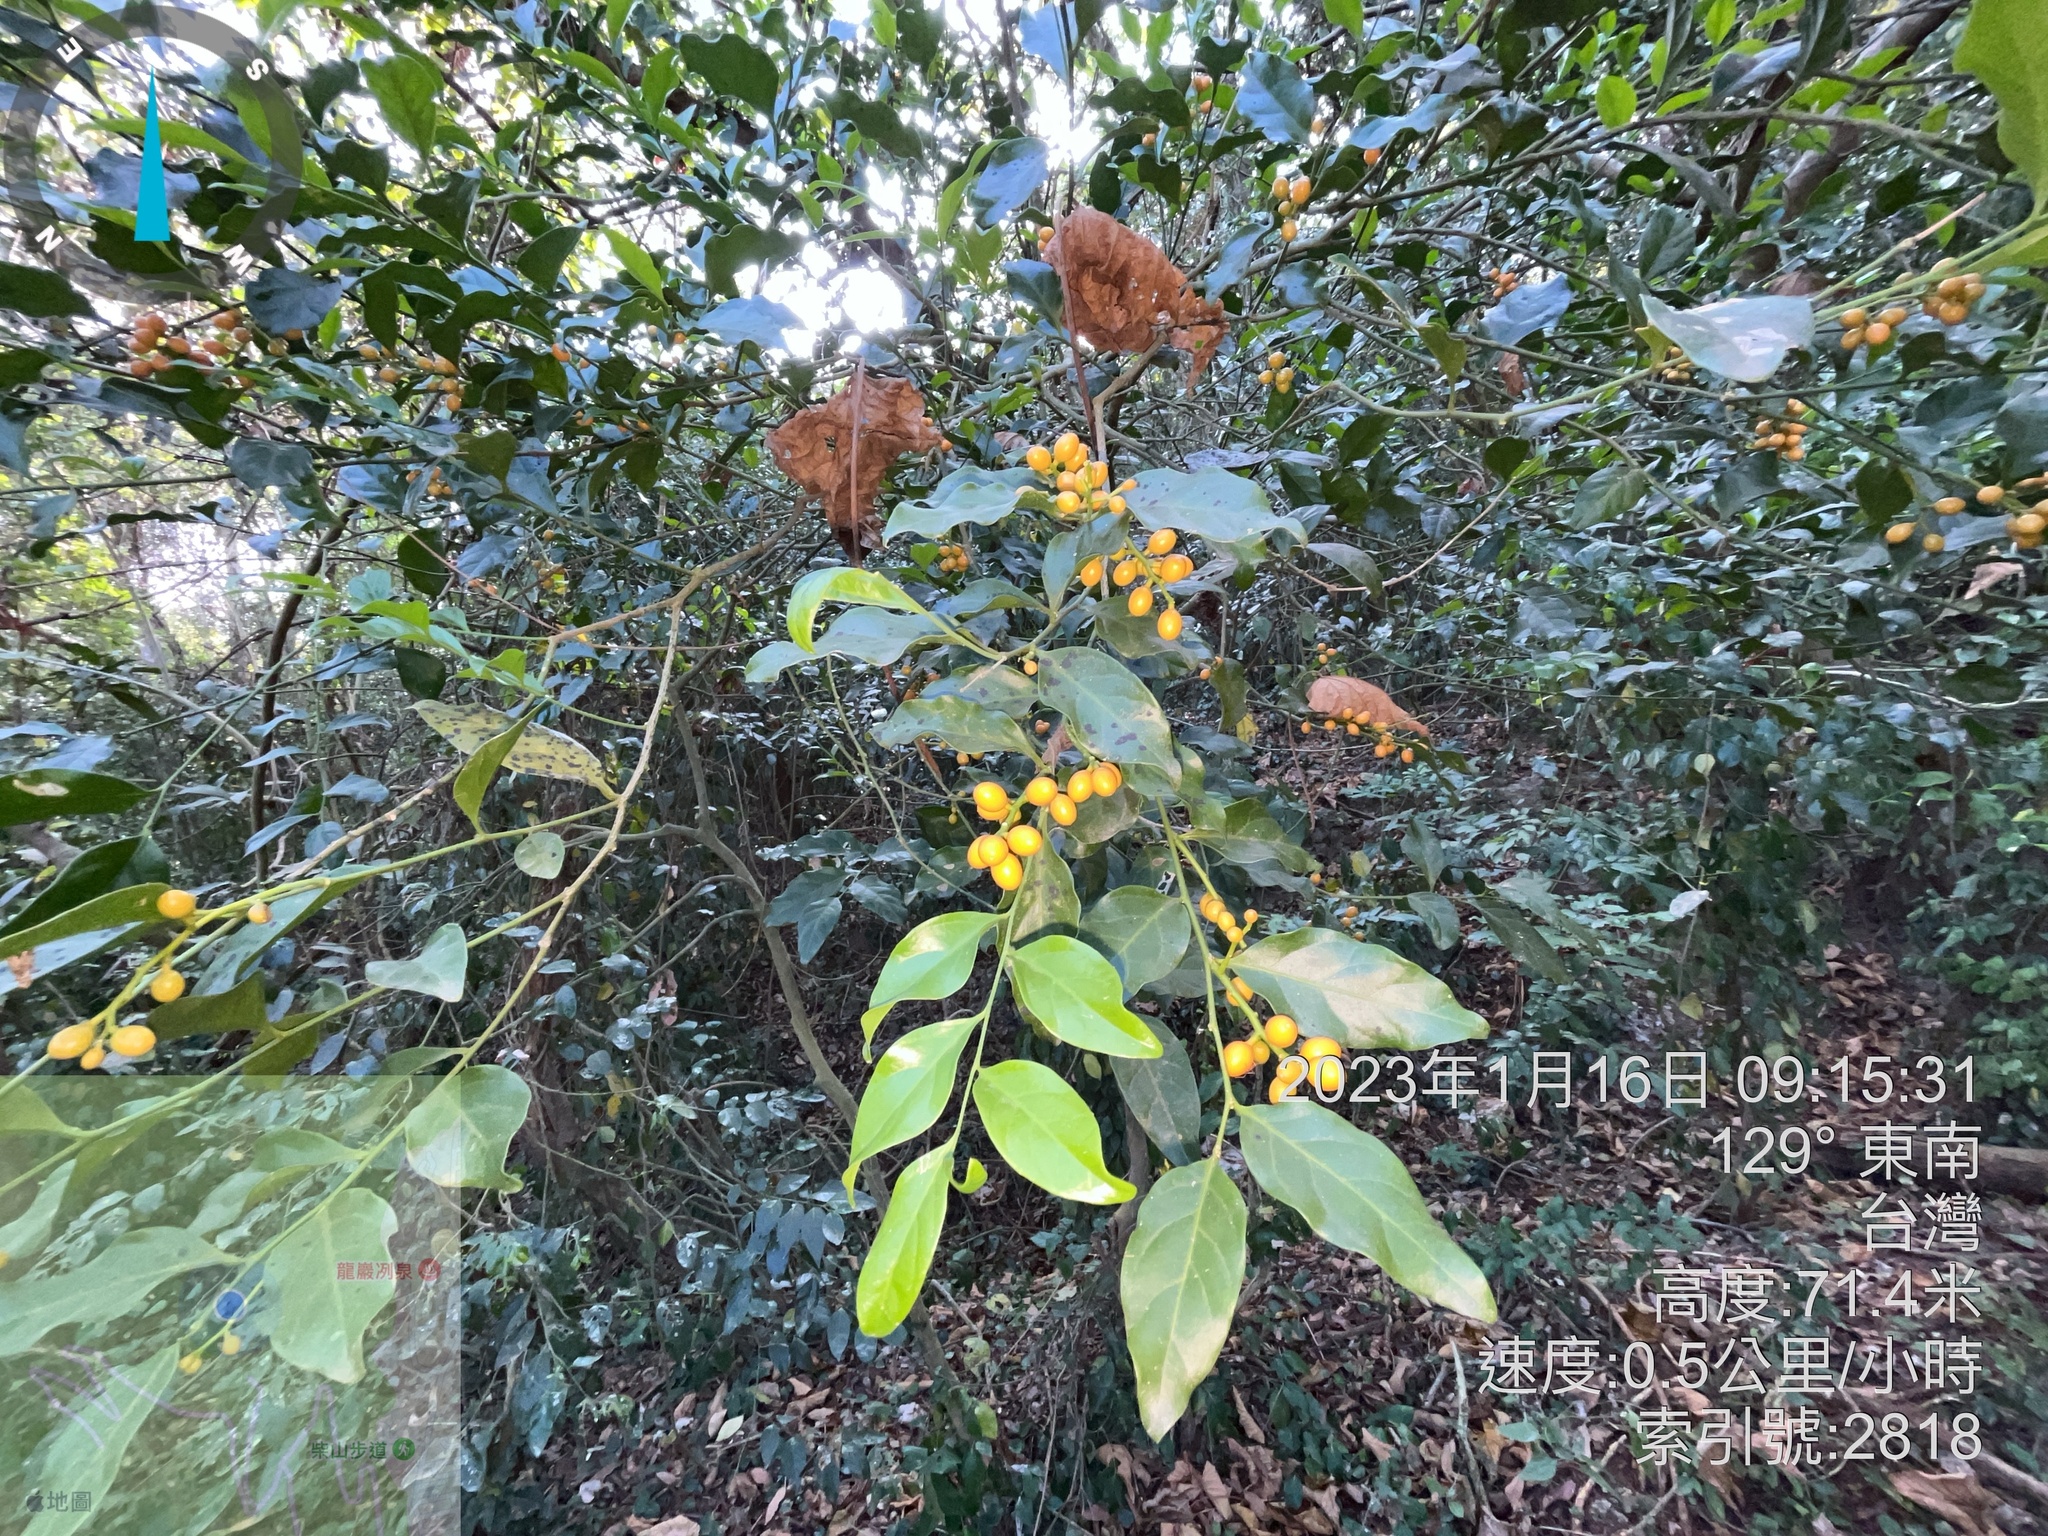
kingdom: Plantae
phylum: Tracheophyta
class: Magnoliopsida
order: Santalales
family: Opiliaceae
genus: Champereia
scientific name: Champereia manillana
